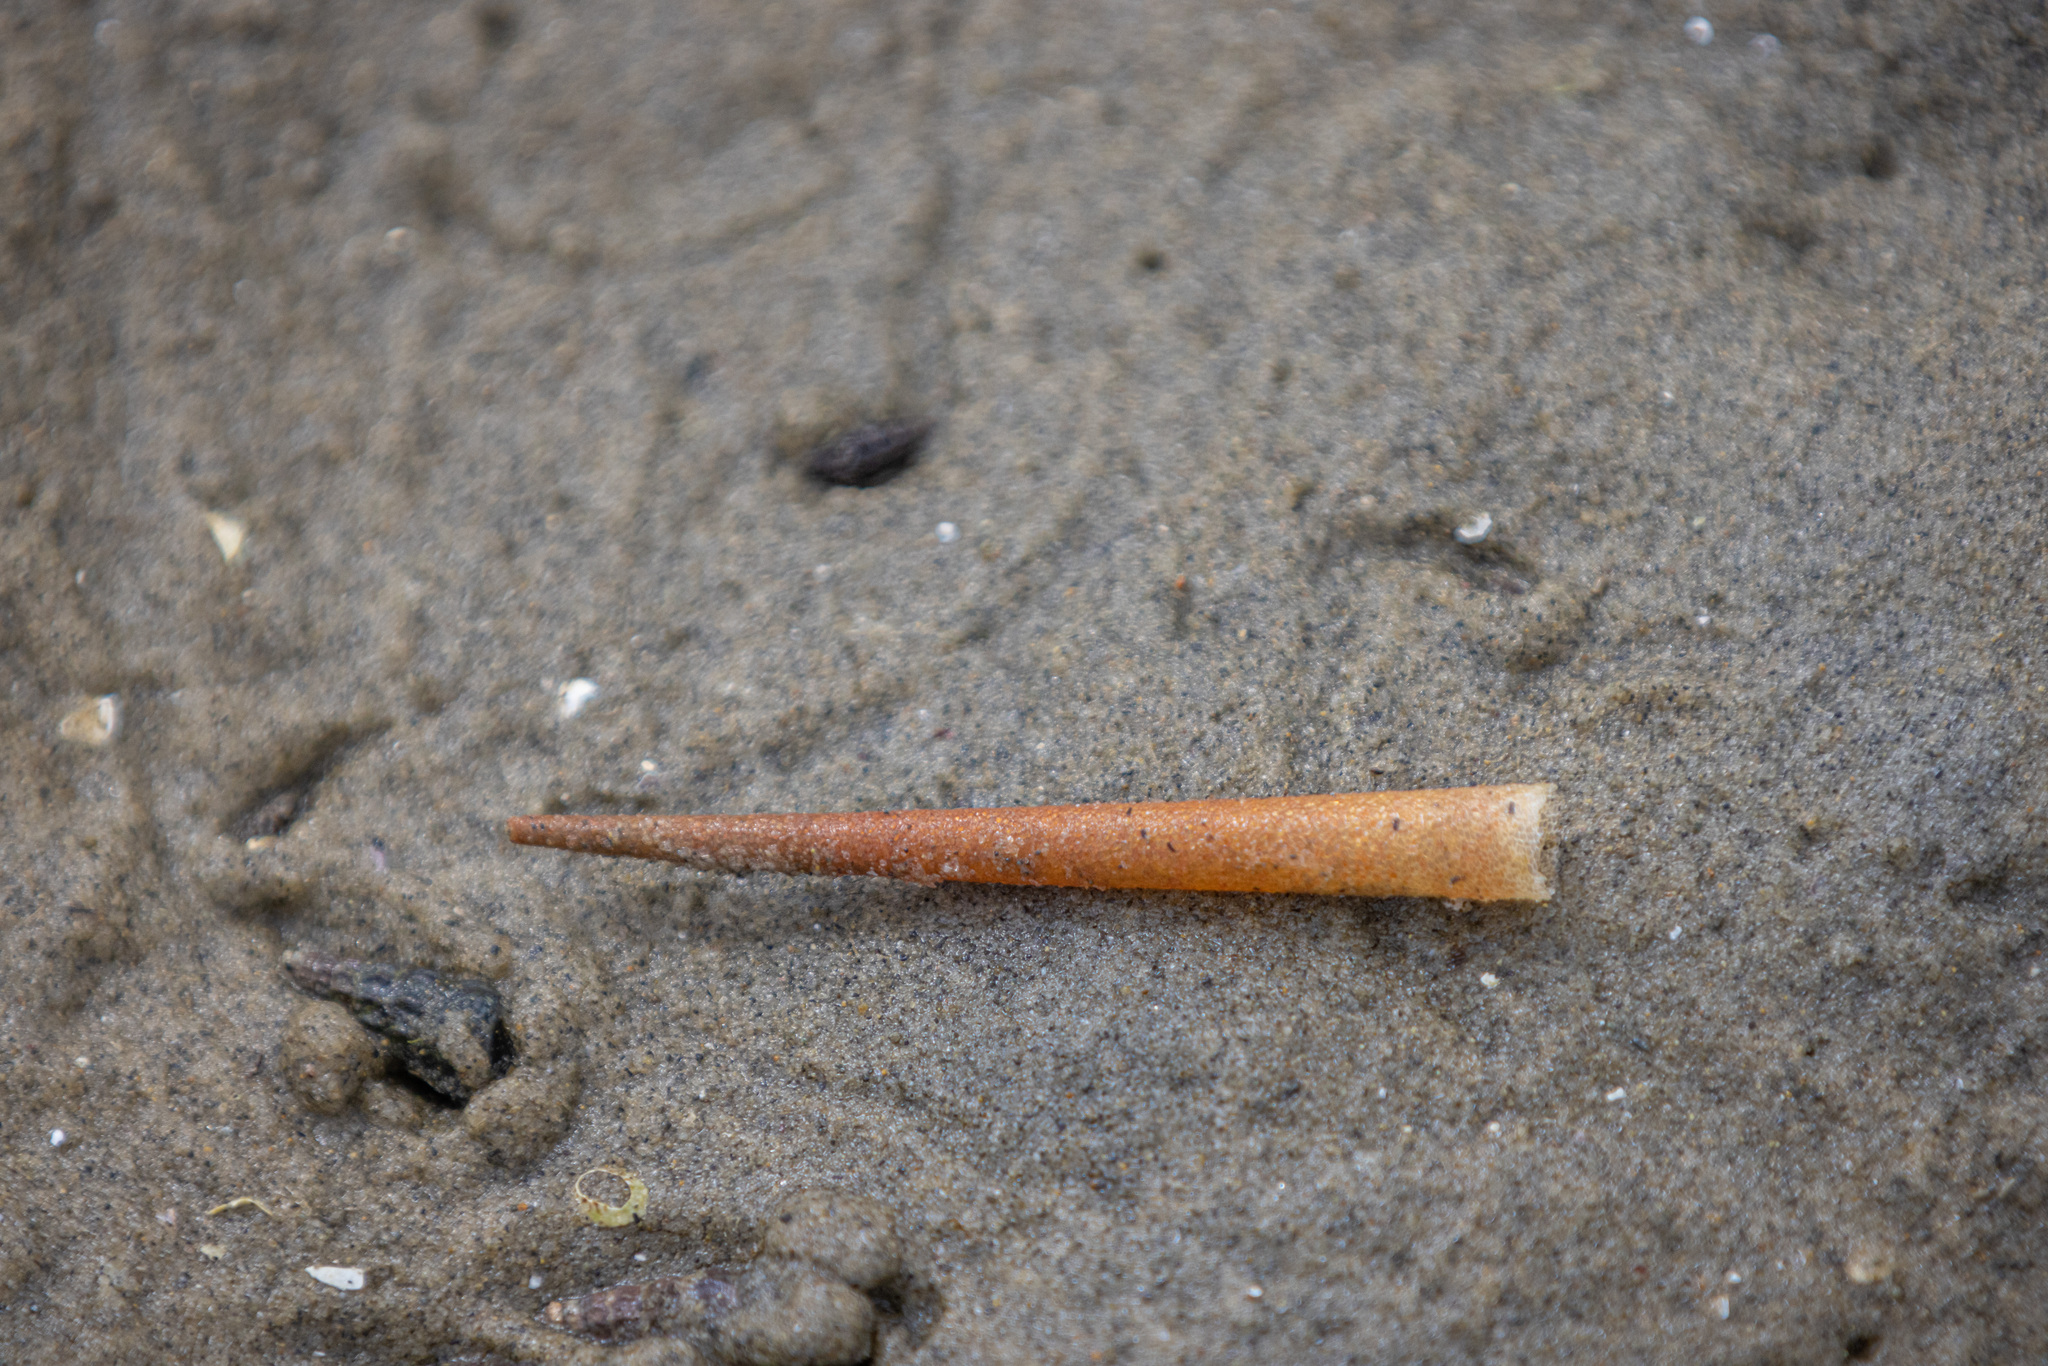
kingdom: Animalia
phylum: Annelida
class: Polychaeta
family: Pectinariidae
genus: Lagis
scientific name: Lagis australis
